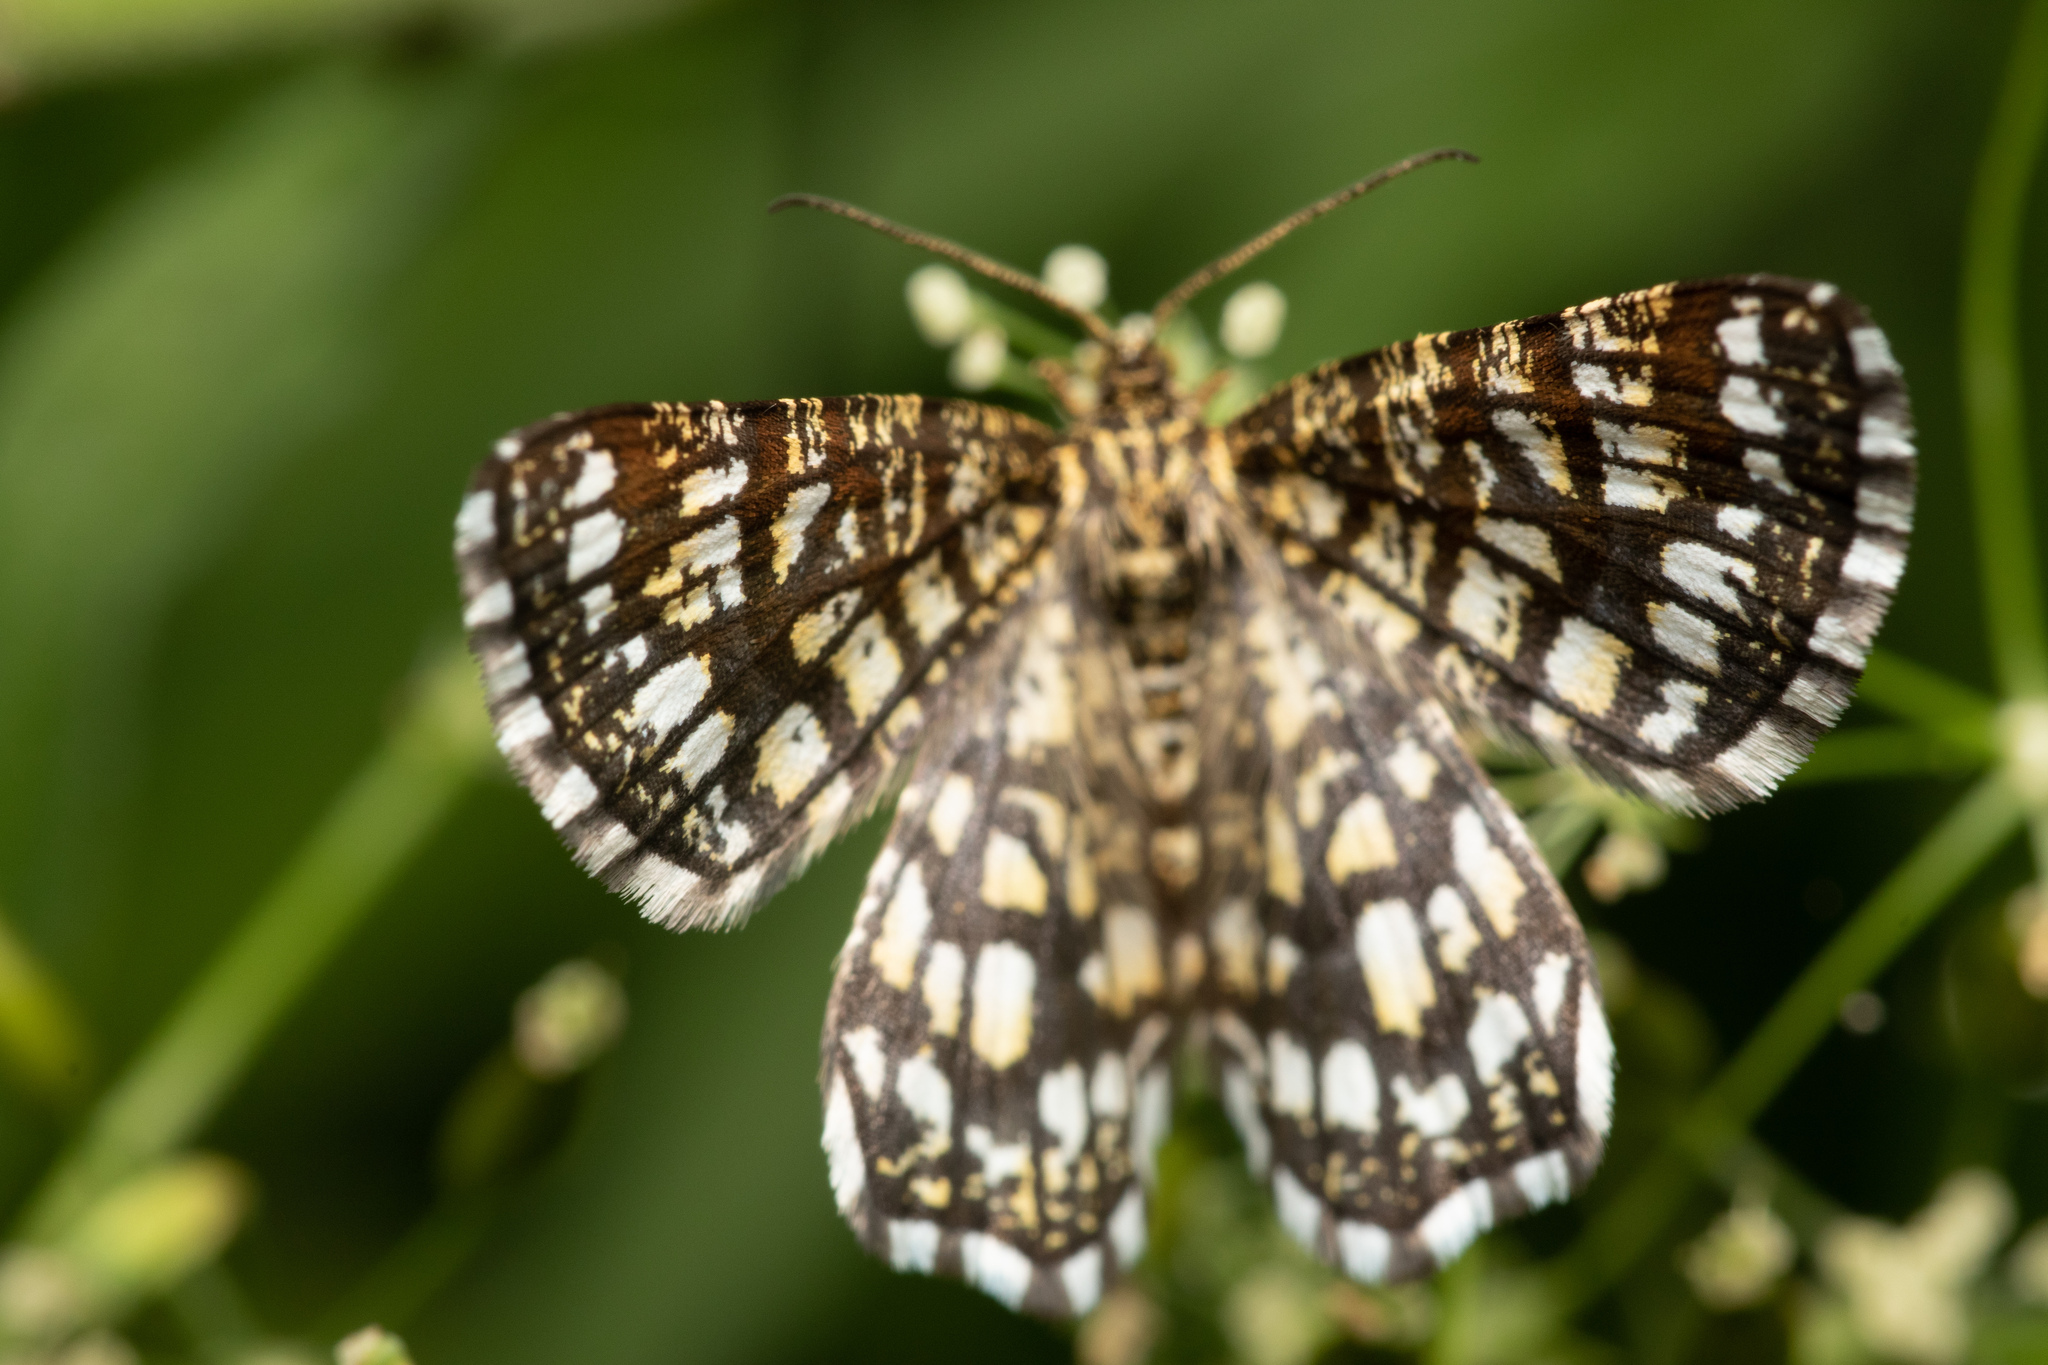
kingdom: Animalia
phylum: Arthropoda
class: Insecta
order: Lepidoptera
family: Geometridae
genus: Chiasmia
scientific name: Chiasmia clathrata
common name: Latticed heath
